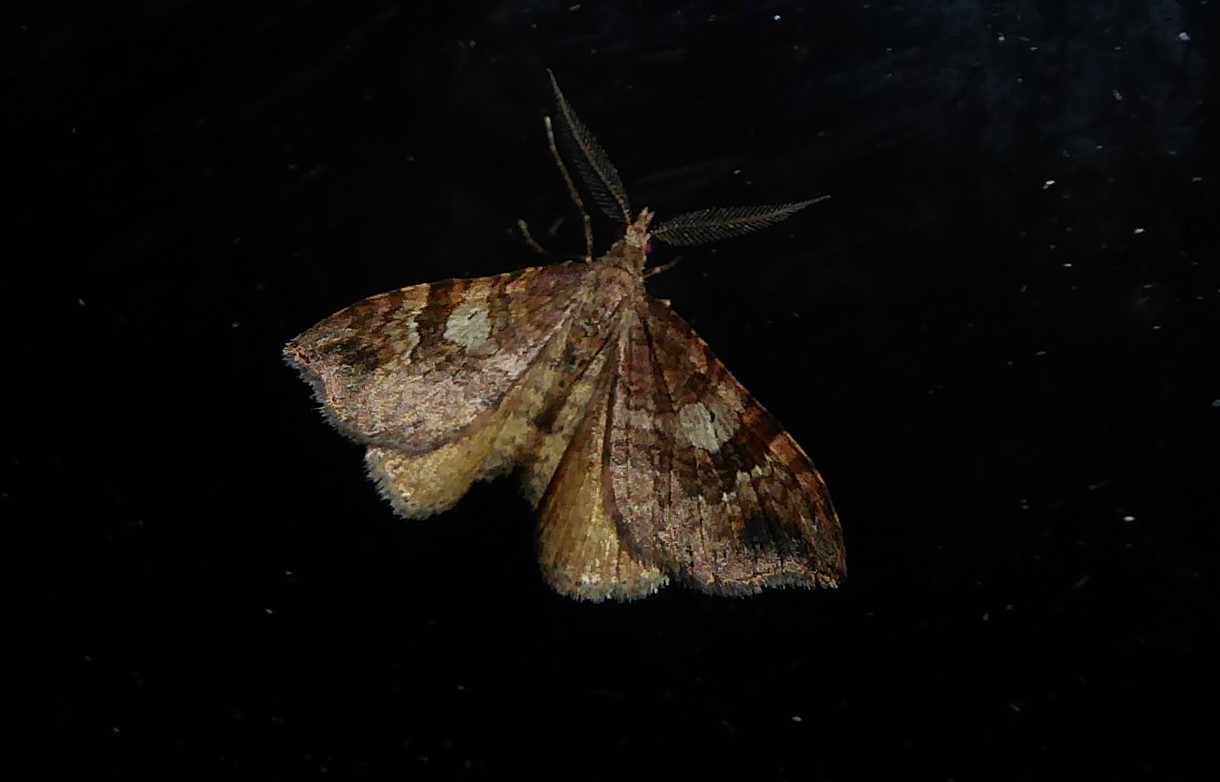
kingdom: Animalia
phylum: Arthropoda
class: Insecta
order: Lepidoptera
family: Geometridae
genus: Homodotis
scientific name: Homodotis megaspilata
